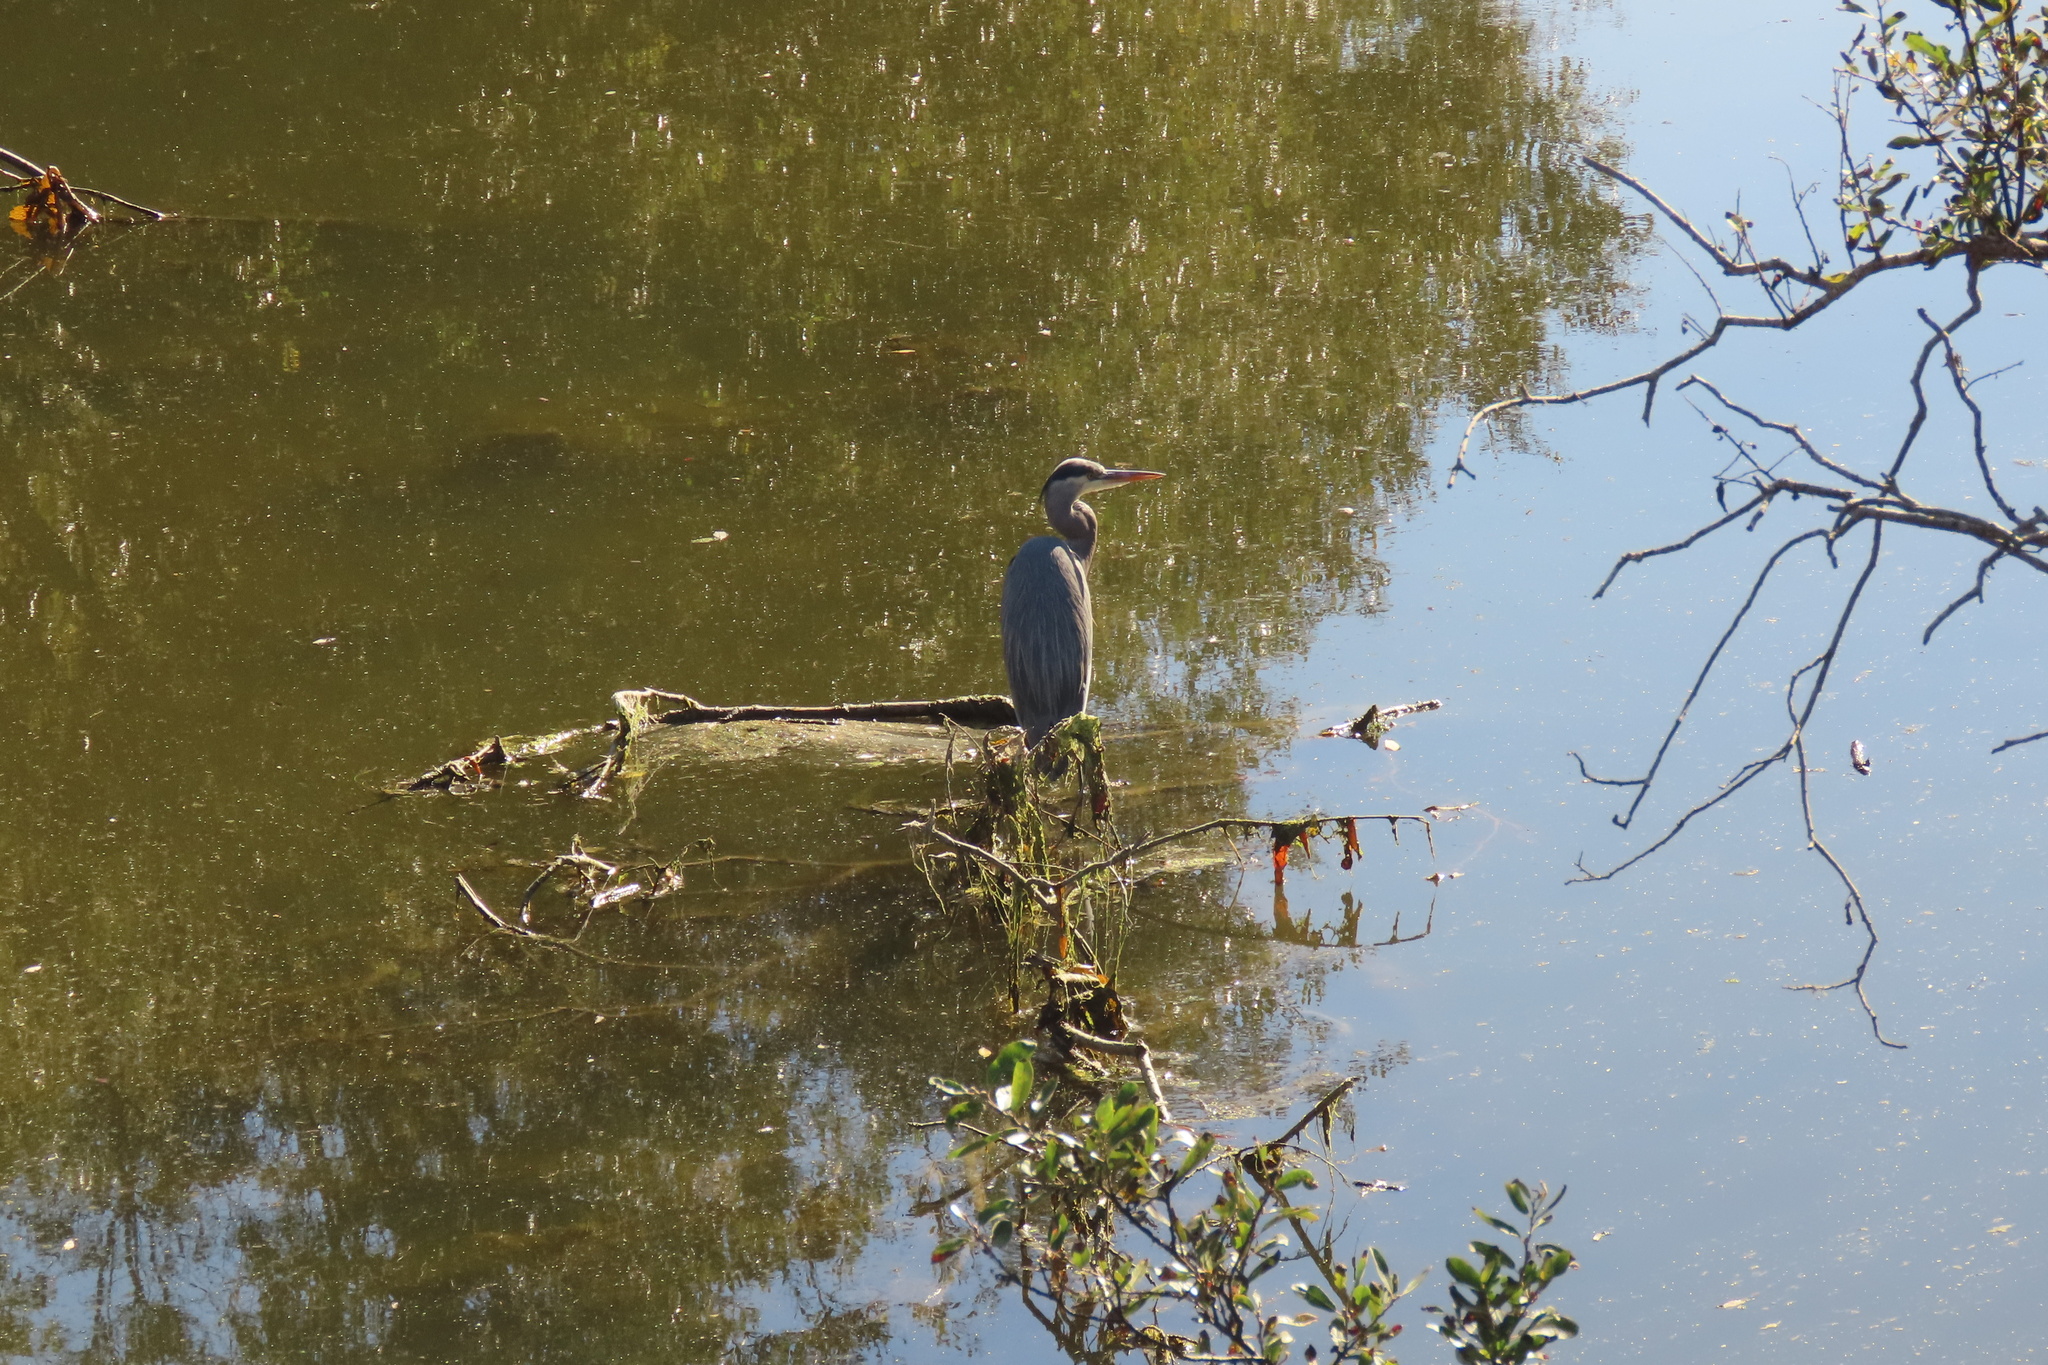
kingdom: Animalia
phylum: Chordata
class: Aves
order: Pelecaniformes
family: Ardeidae
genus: Ardea
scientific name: Ardea herodias
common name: Great blue heron
